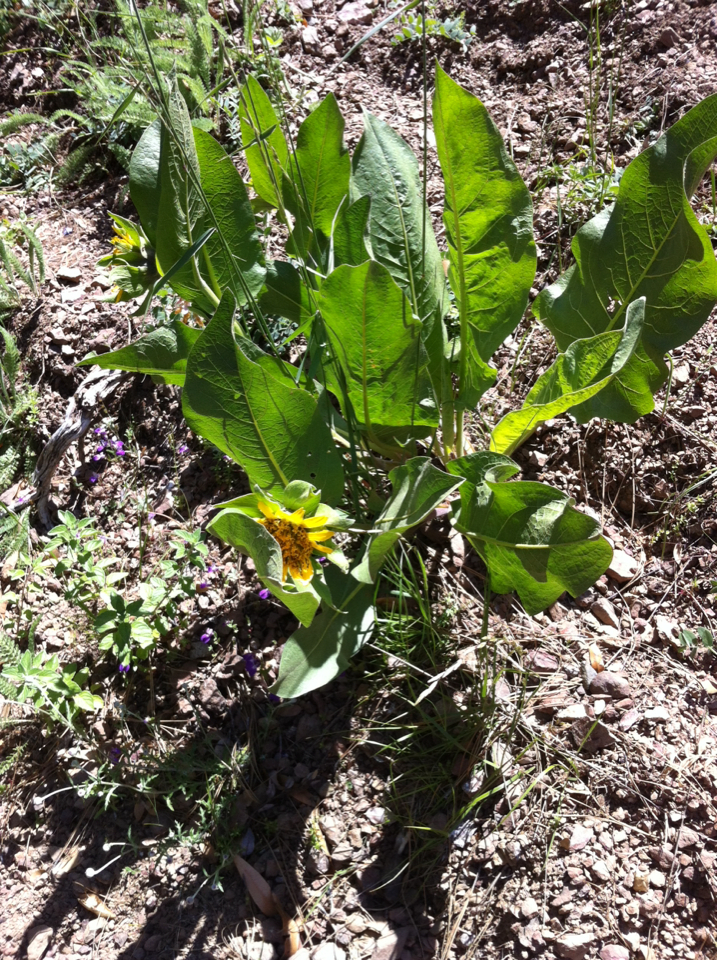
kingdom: Plantae
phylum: Tracheophyta
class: Magnoliopsida
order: Asterales
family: Asteraceae
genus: Wyethia
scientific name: Wyethia glabra
